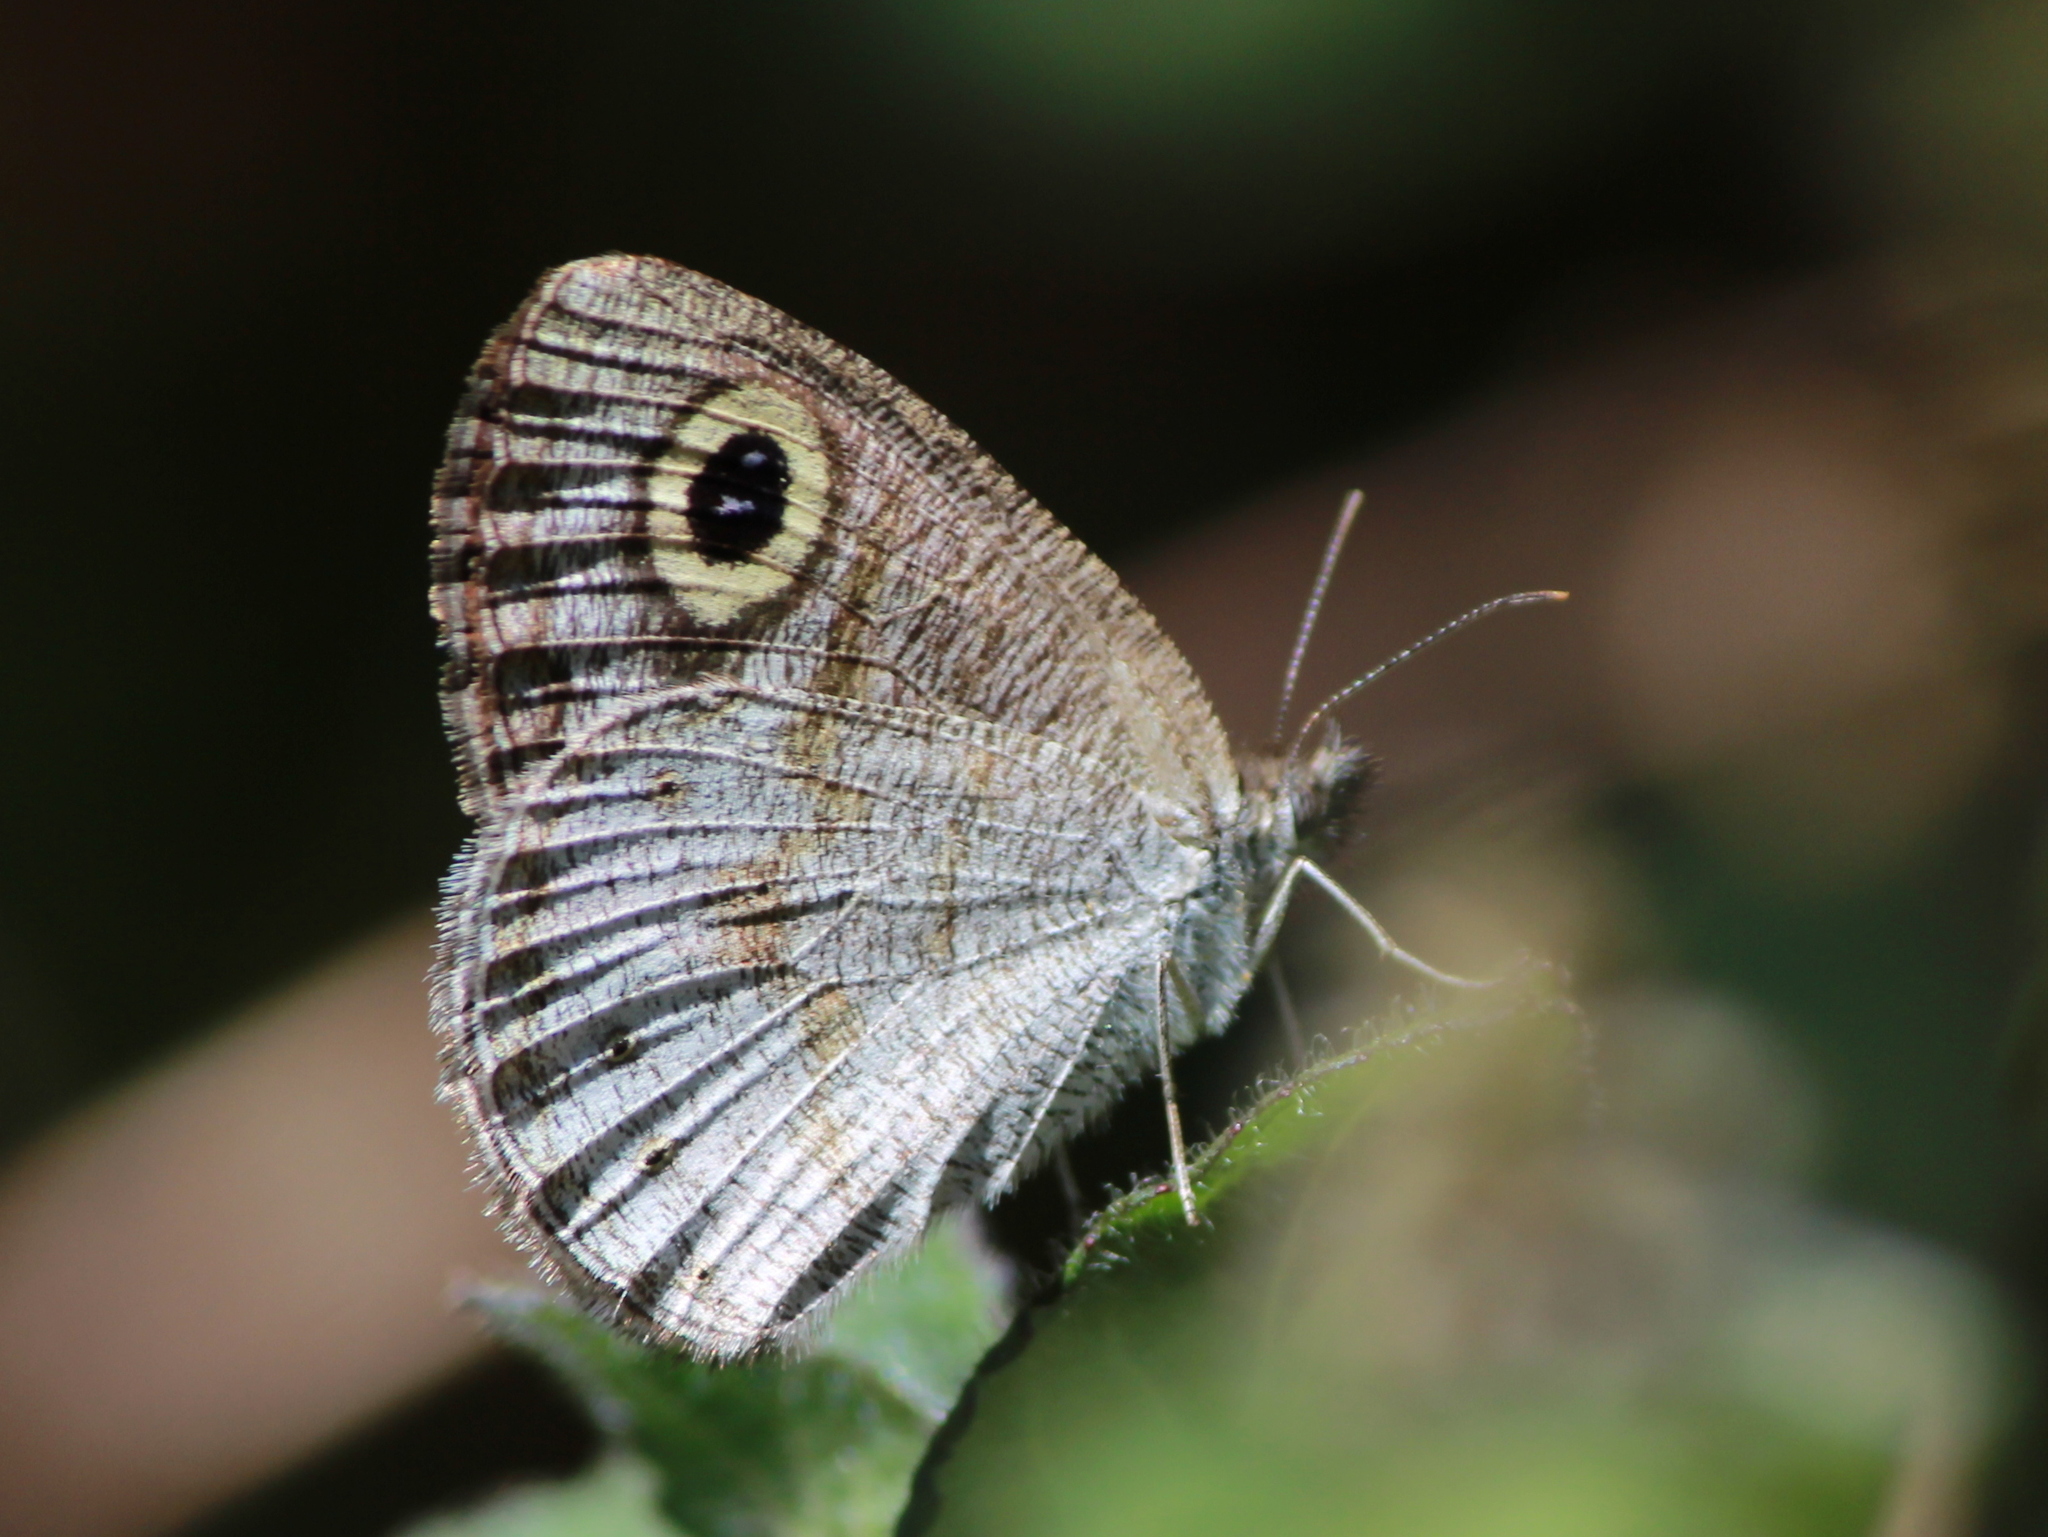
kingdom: Animalia
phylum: Arthropoda
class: Insecta
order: Lepidoptera
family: Nymphalidae
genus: Ypthima
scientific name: Ypthima huebneri
